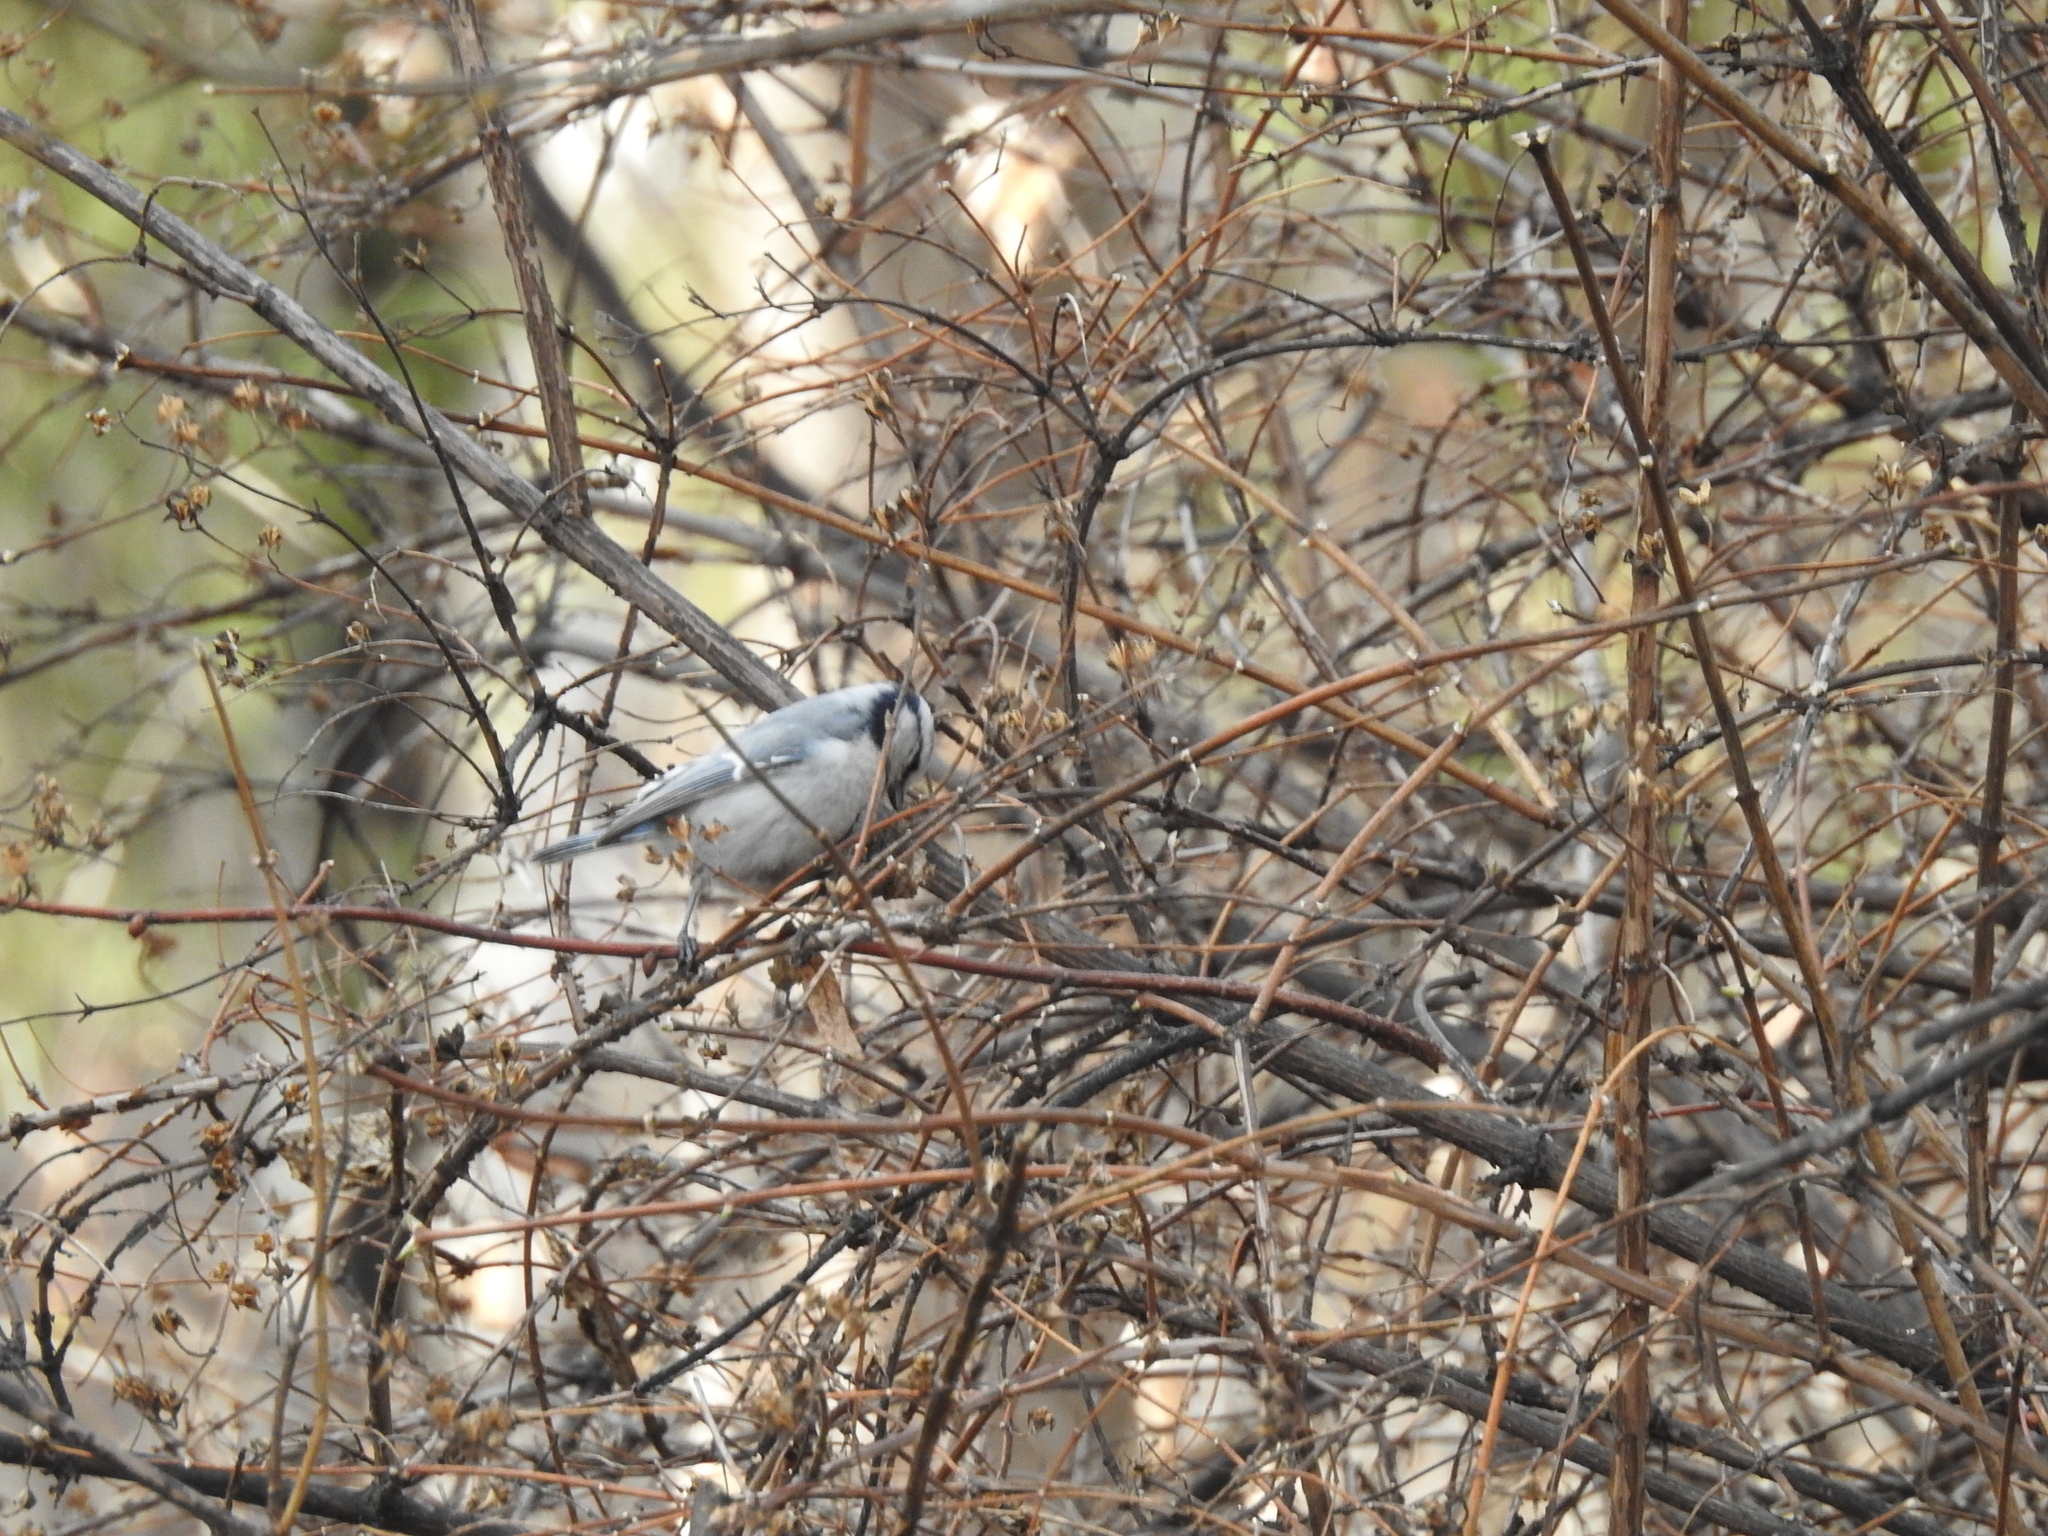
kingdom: Animalia
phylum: Chordata
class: Aves
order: Passeriformes
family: Paridae
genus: Cyanistes
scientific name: Cyanistes
